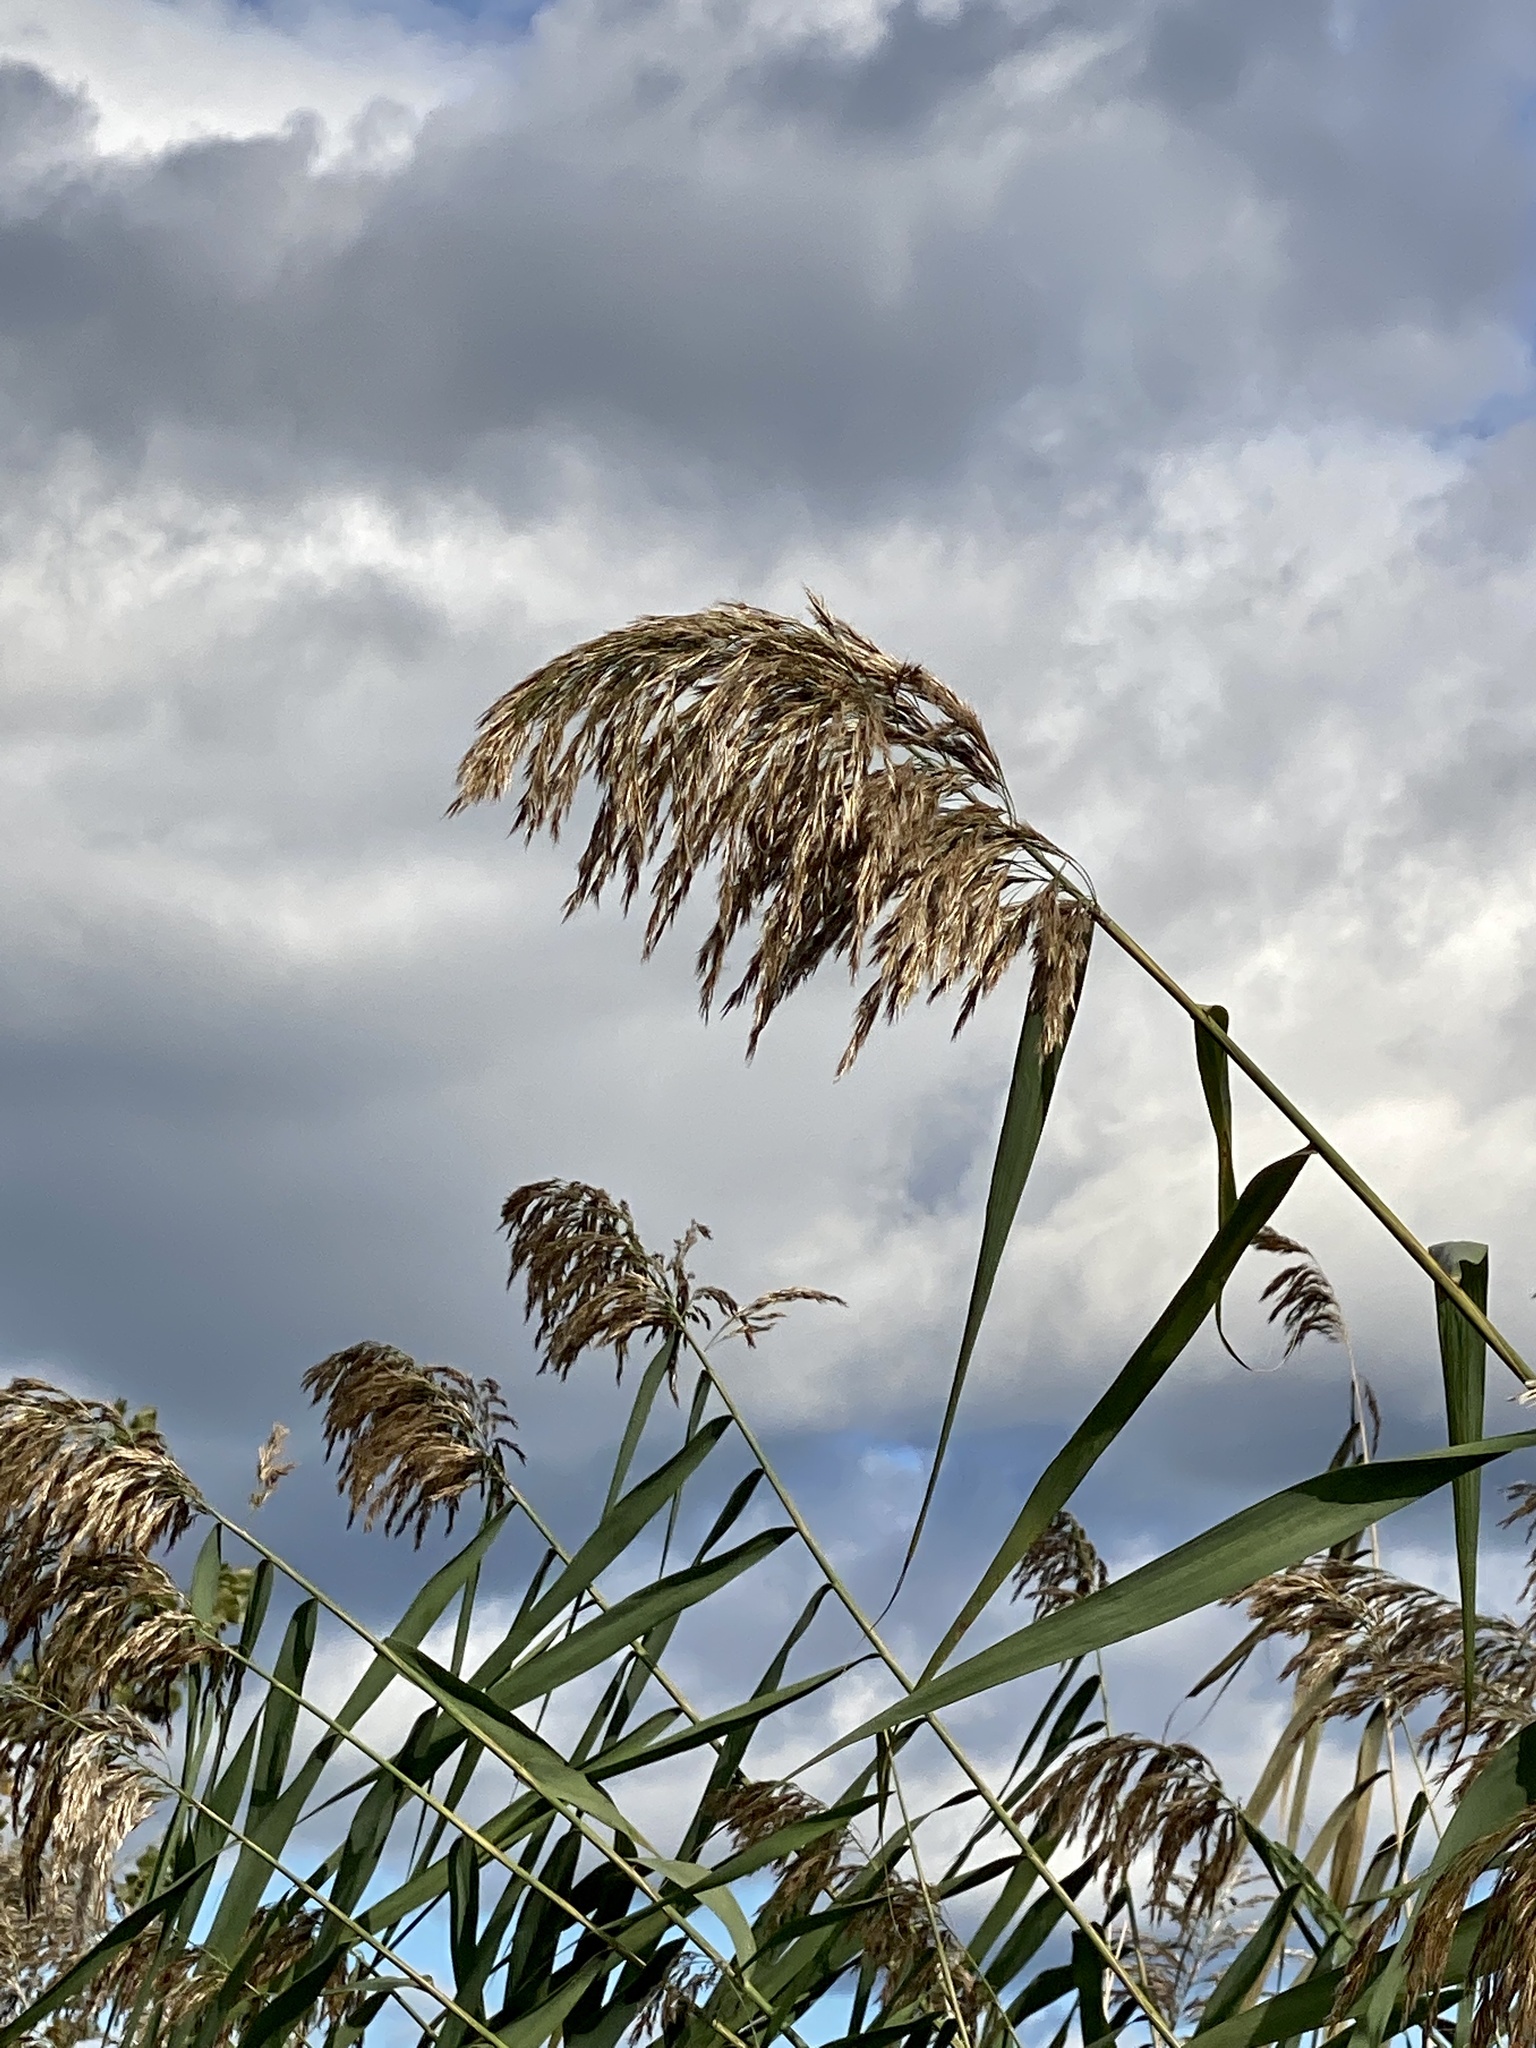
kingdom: Plantae
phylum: Tracheophyta
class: Liliopsida
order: Poales
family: Poaceae
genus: Phragmites
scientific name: Phragmites australis
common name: Common reed
